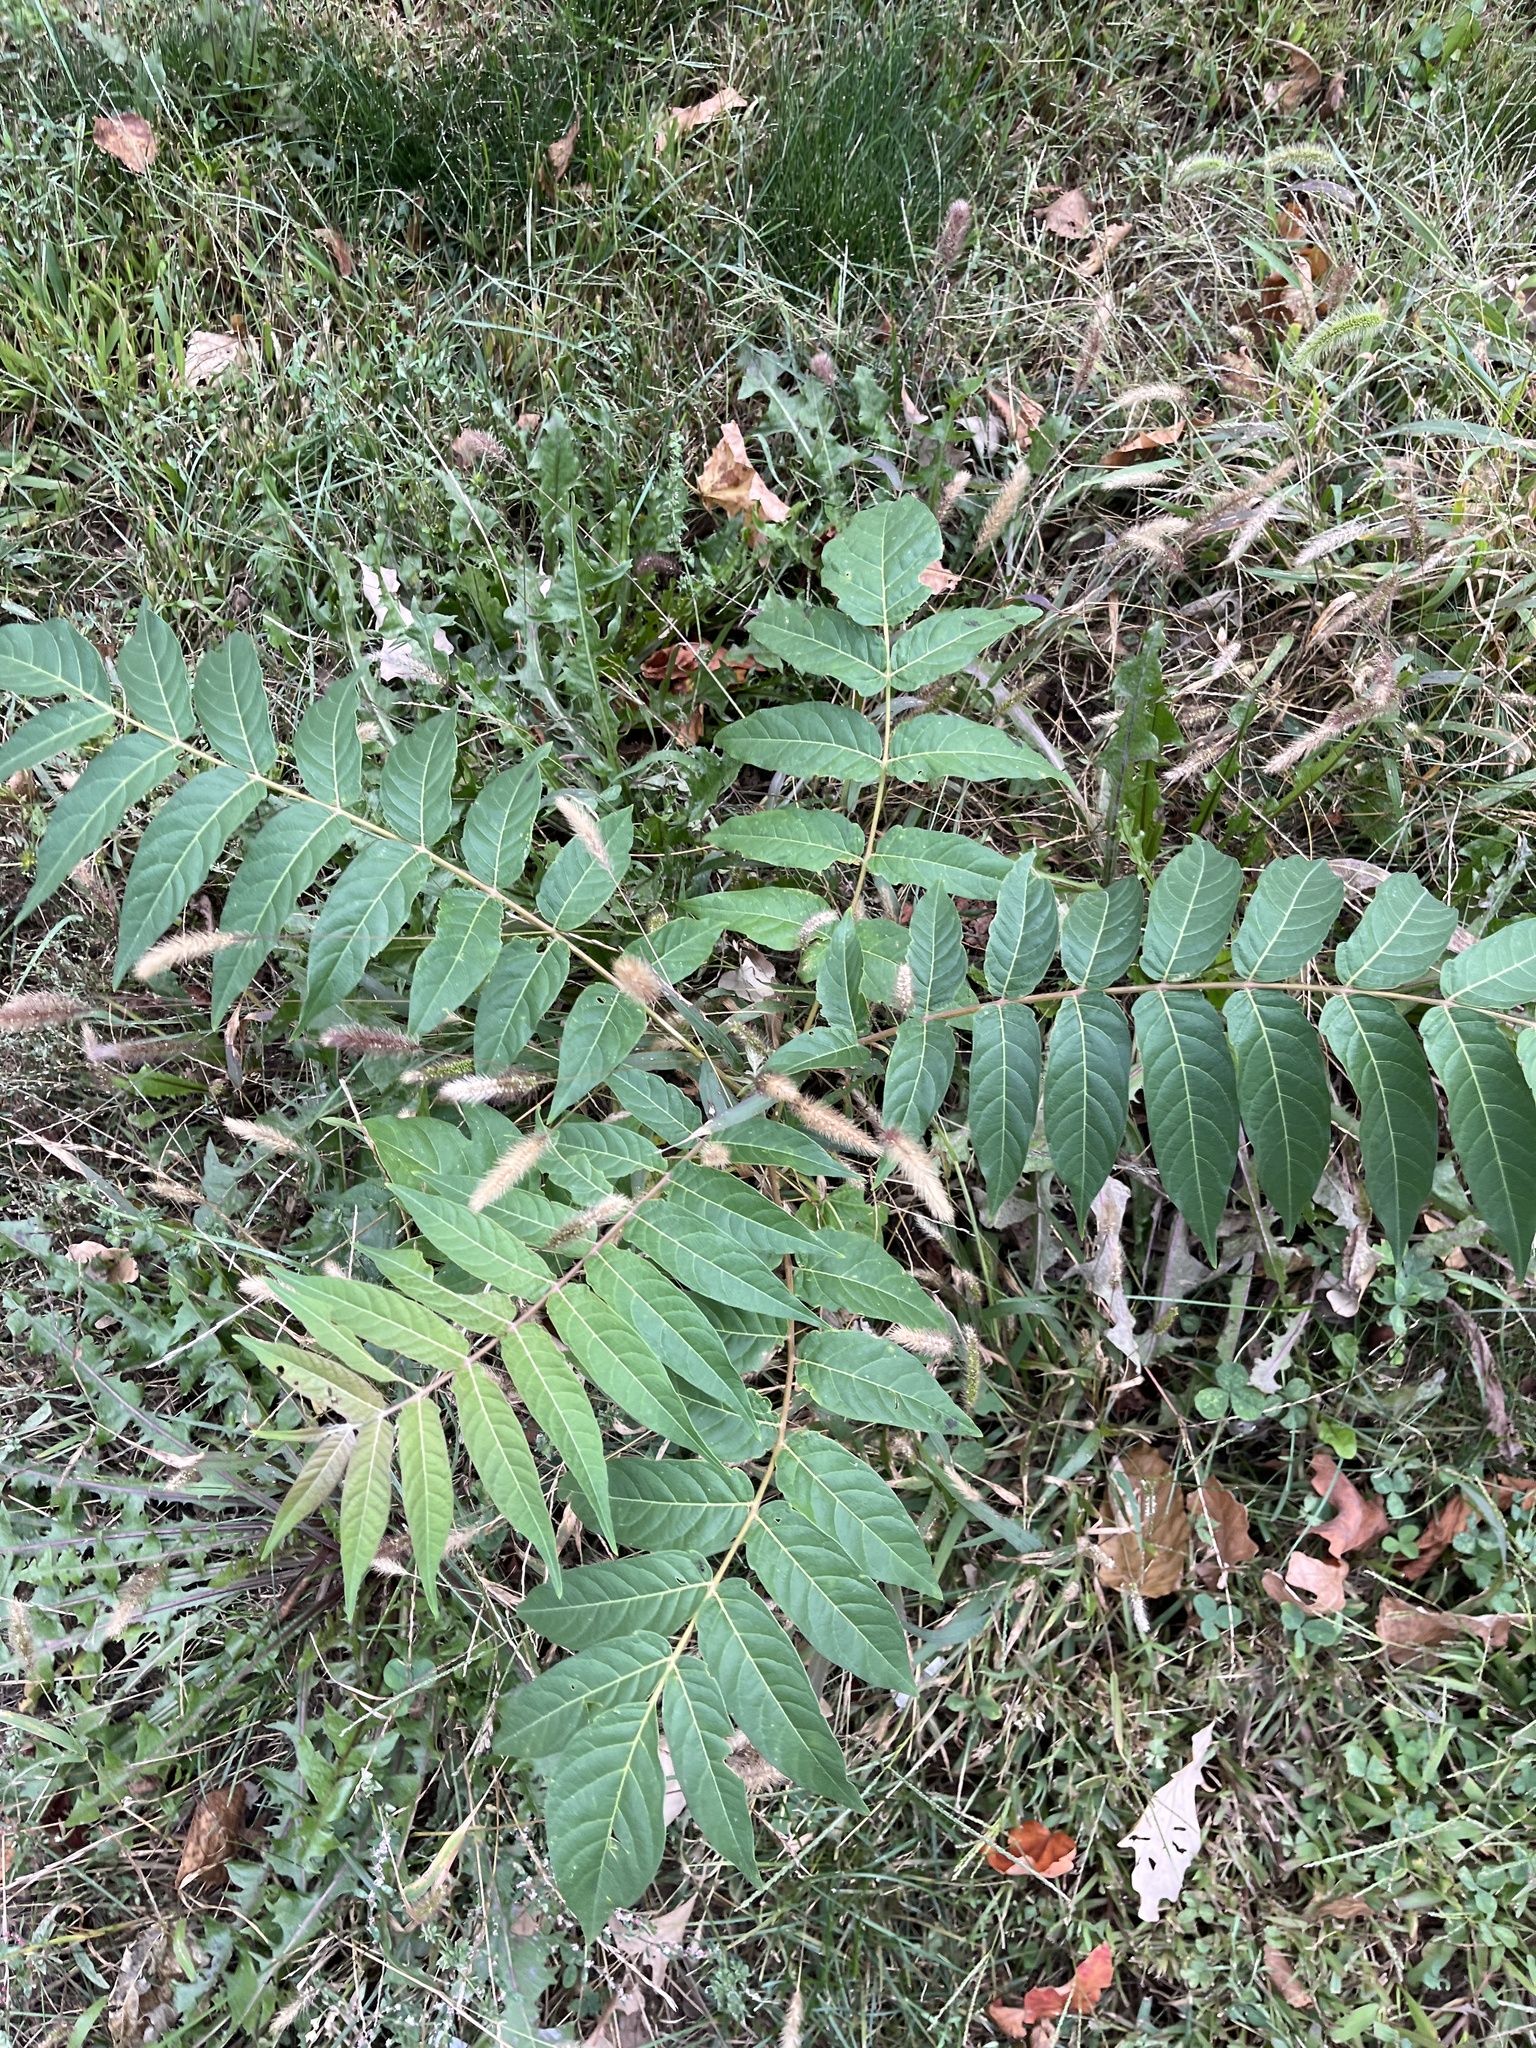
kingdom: Plantae
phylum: Tracheophyta
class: Magnoliopsida
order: Sapindales
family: Simaroubaceae
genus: Ailanthus
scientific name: Ailanthus altissima
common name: Tree-of-heaven
